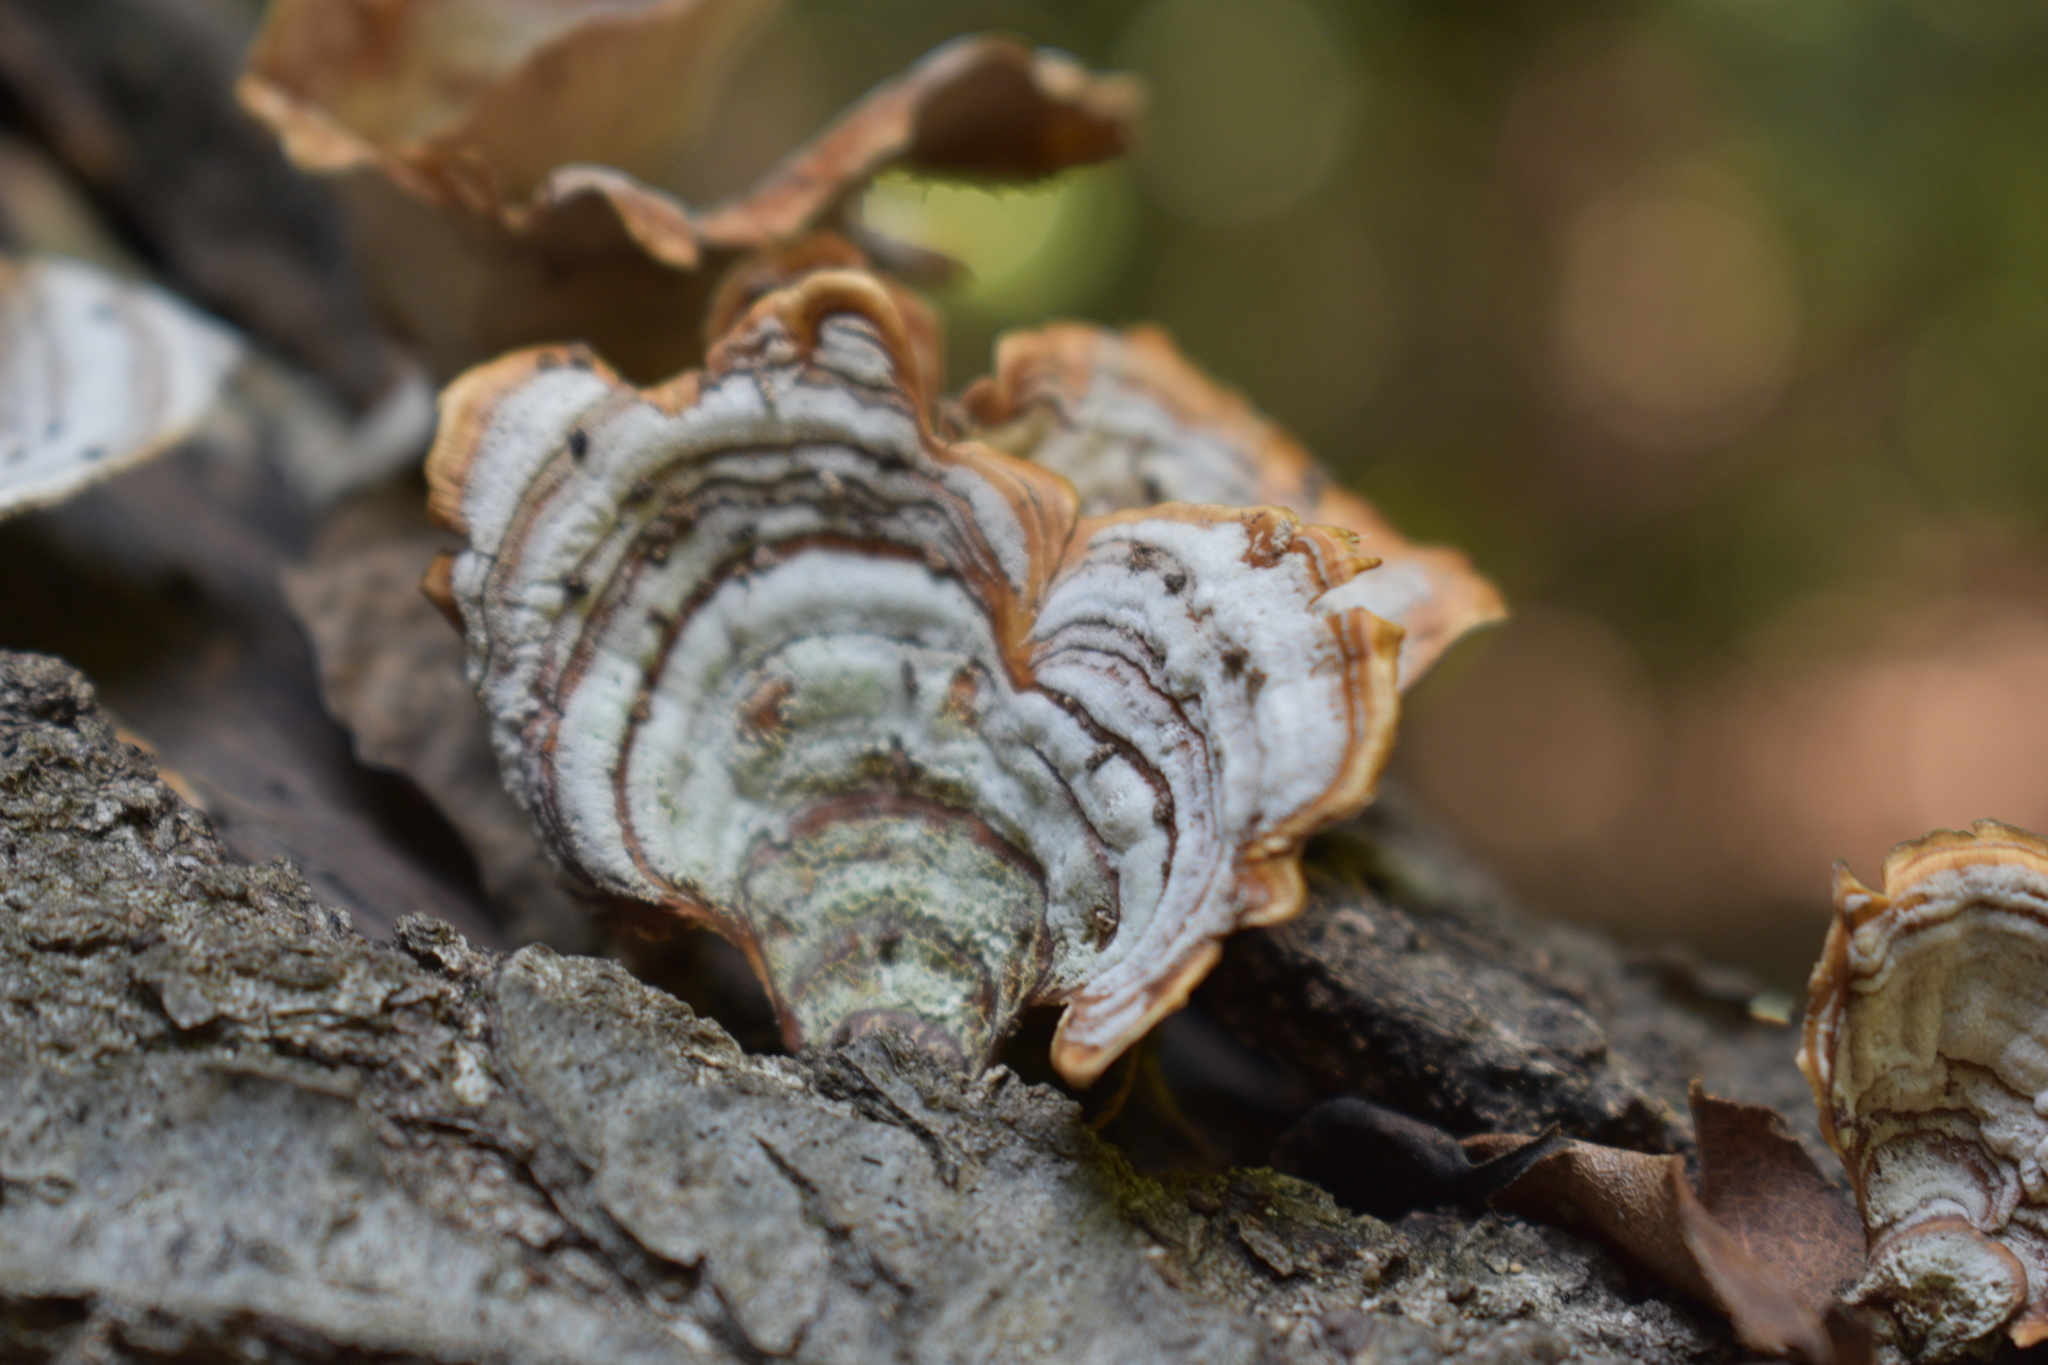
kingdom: Fungi
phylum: Basidiomycota
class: Agaricomycetes
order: Russulales
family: Stereaceae
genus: Stereum
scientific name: Stereum ostrea
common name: False turkeytail
